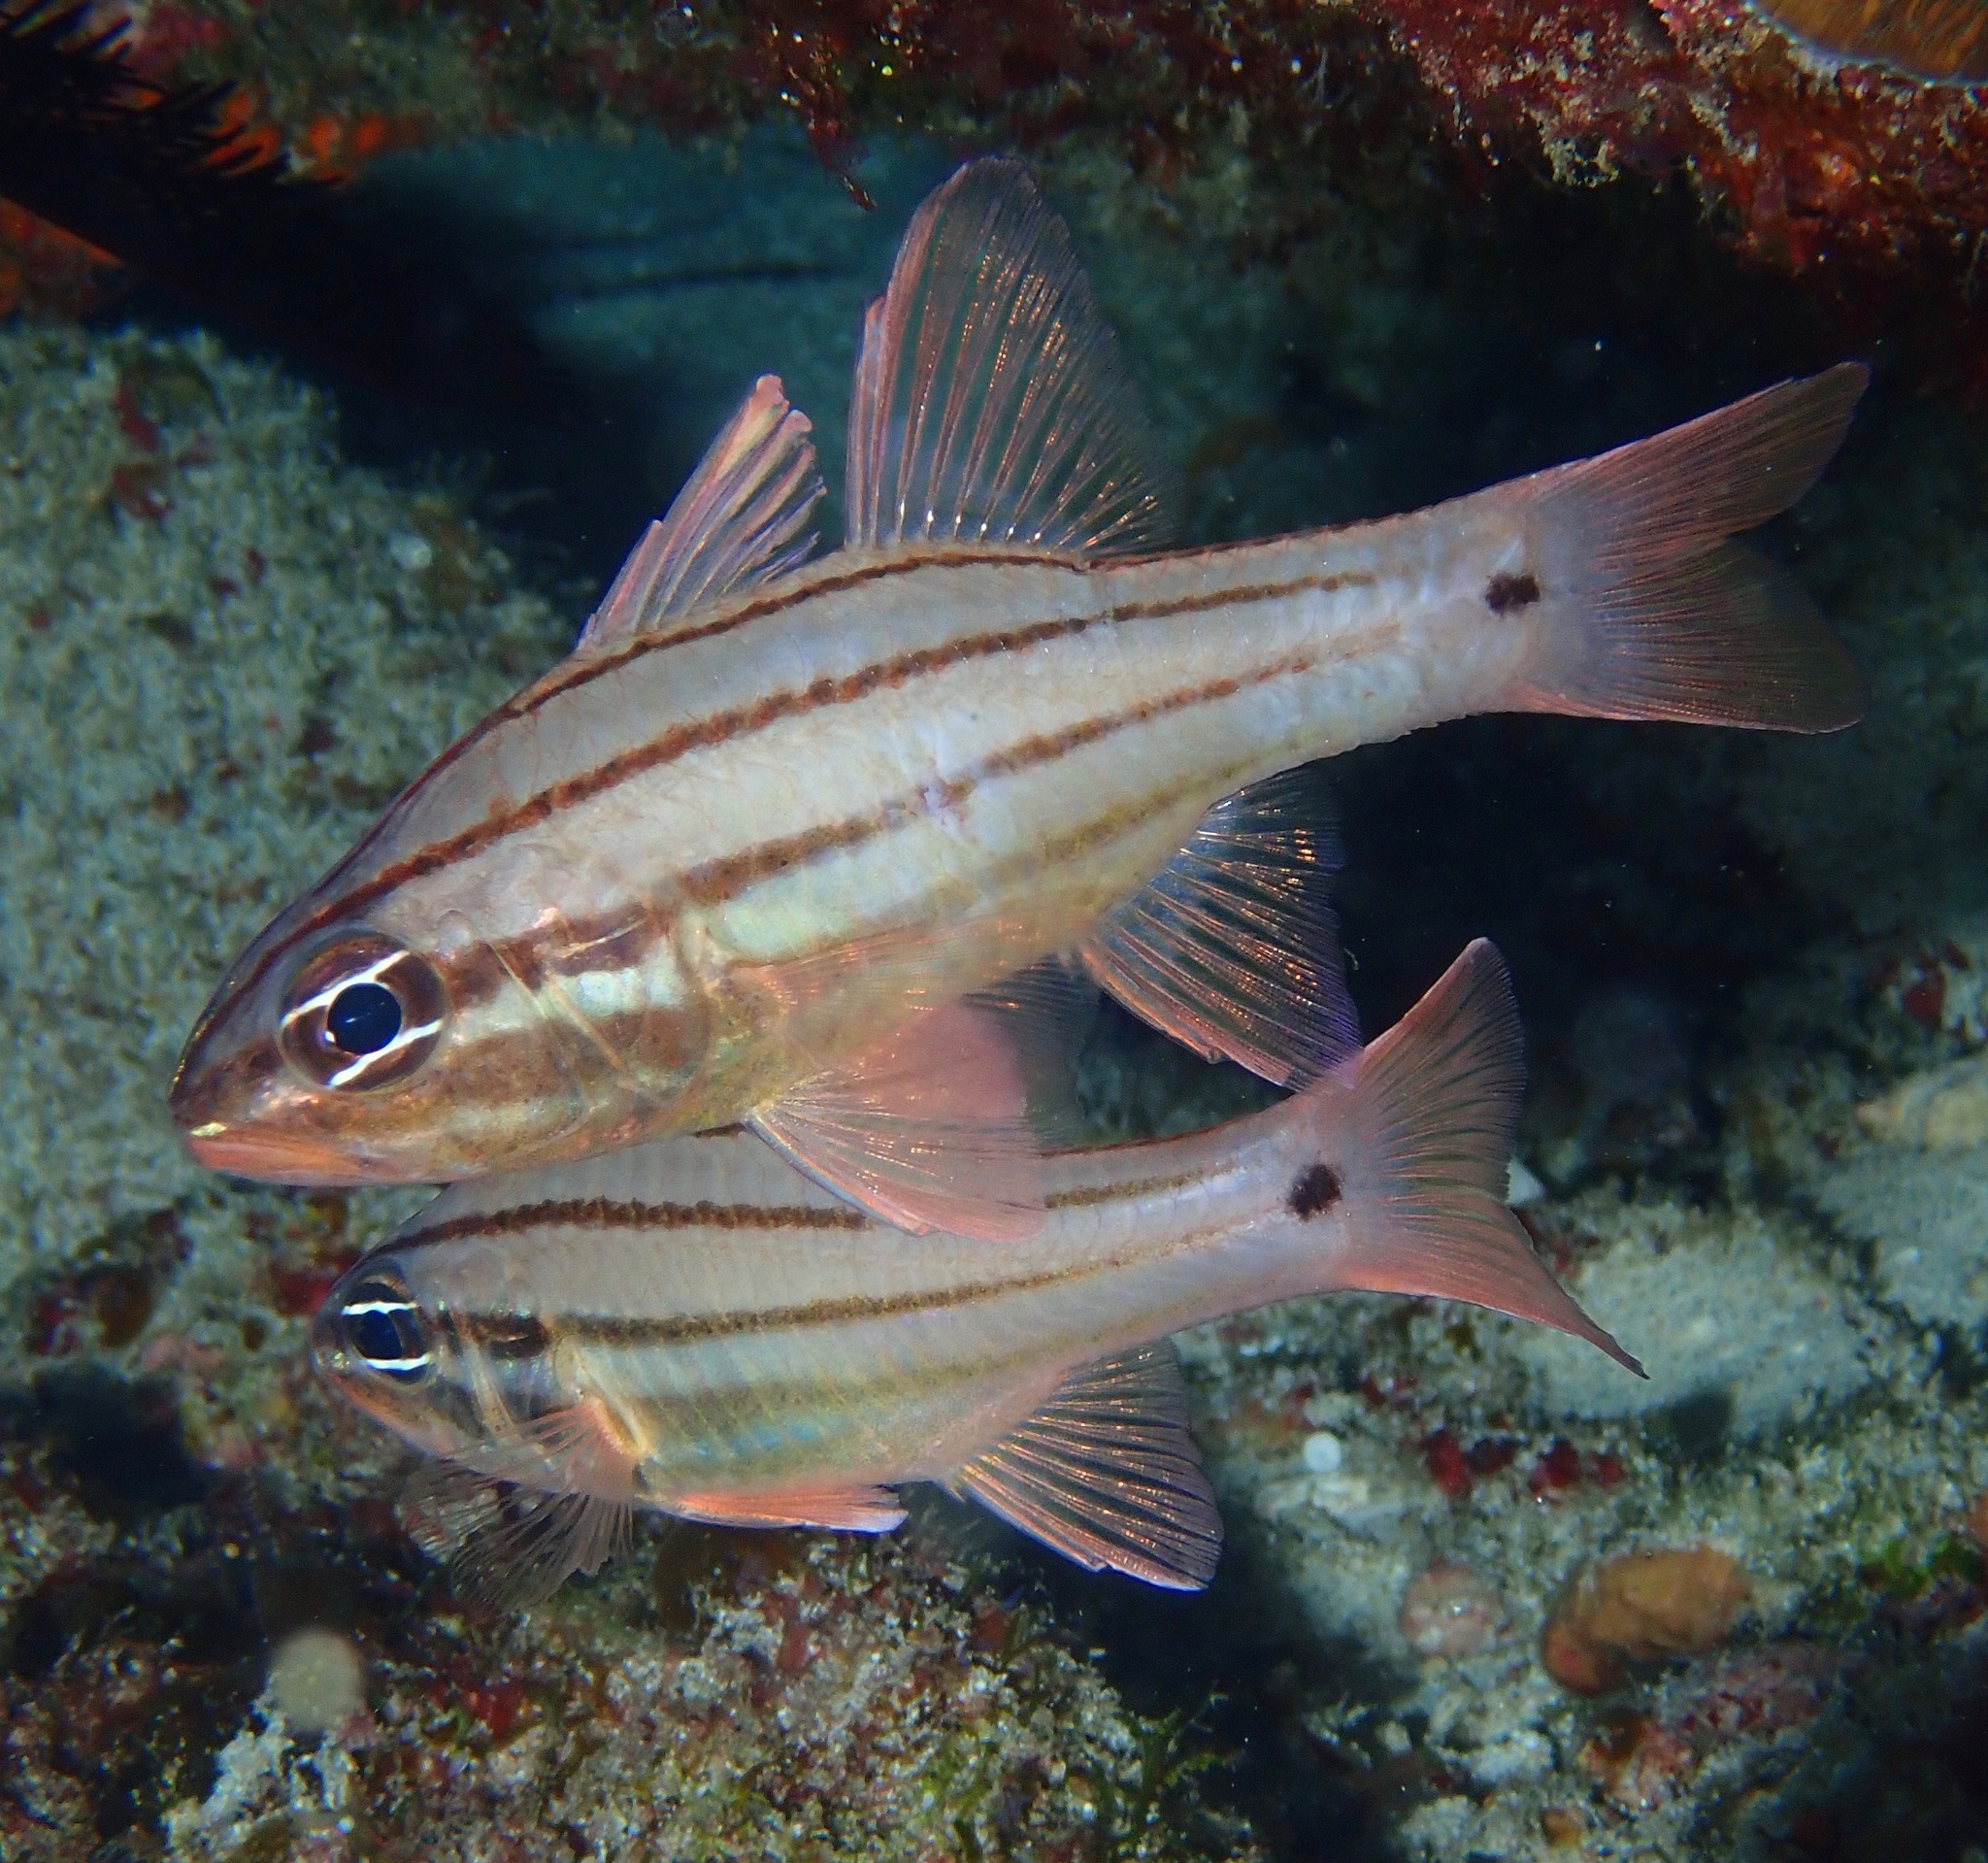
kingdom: Animalia
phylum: Chordata
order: Perciformes
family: Apogonidae
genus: Ostorhinchus
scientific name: Ostorhinchus doederleini
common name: Doederlein's cardinalfish
